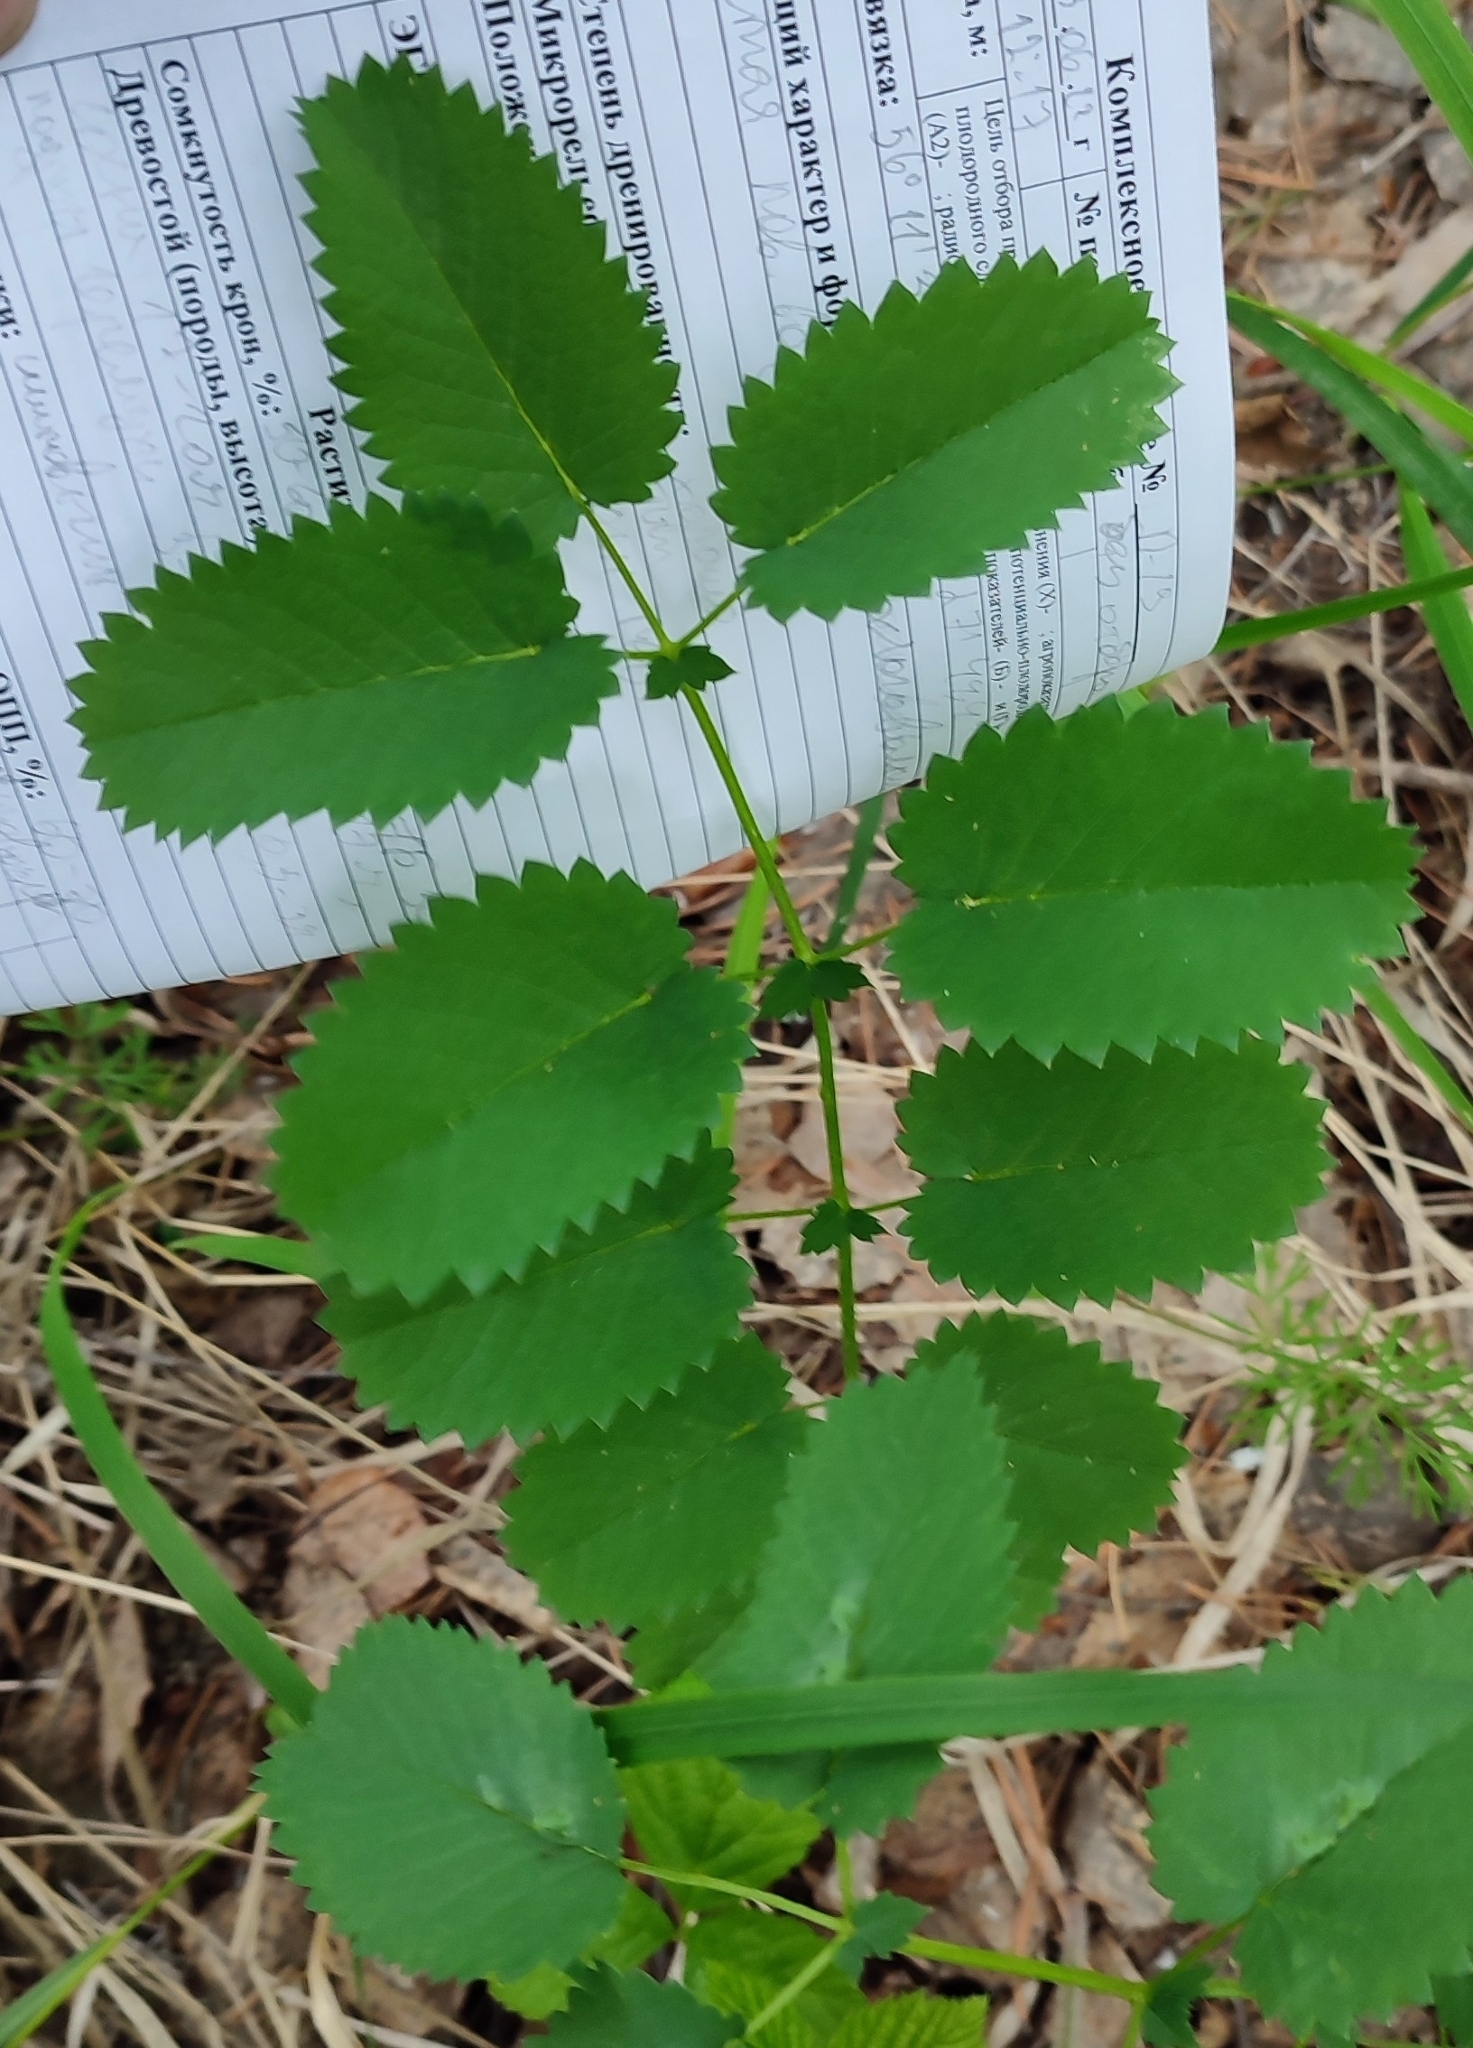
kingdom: Plantae
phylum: Tracheophyta
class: Magnoliopsida
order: Rosales
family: Rosaceae
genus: Sanguisorba
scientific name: Sanguisorba officinalis
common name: Great burnet
